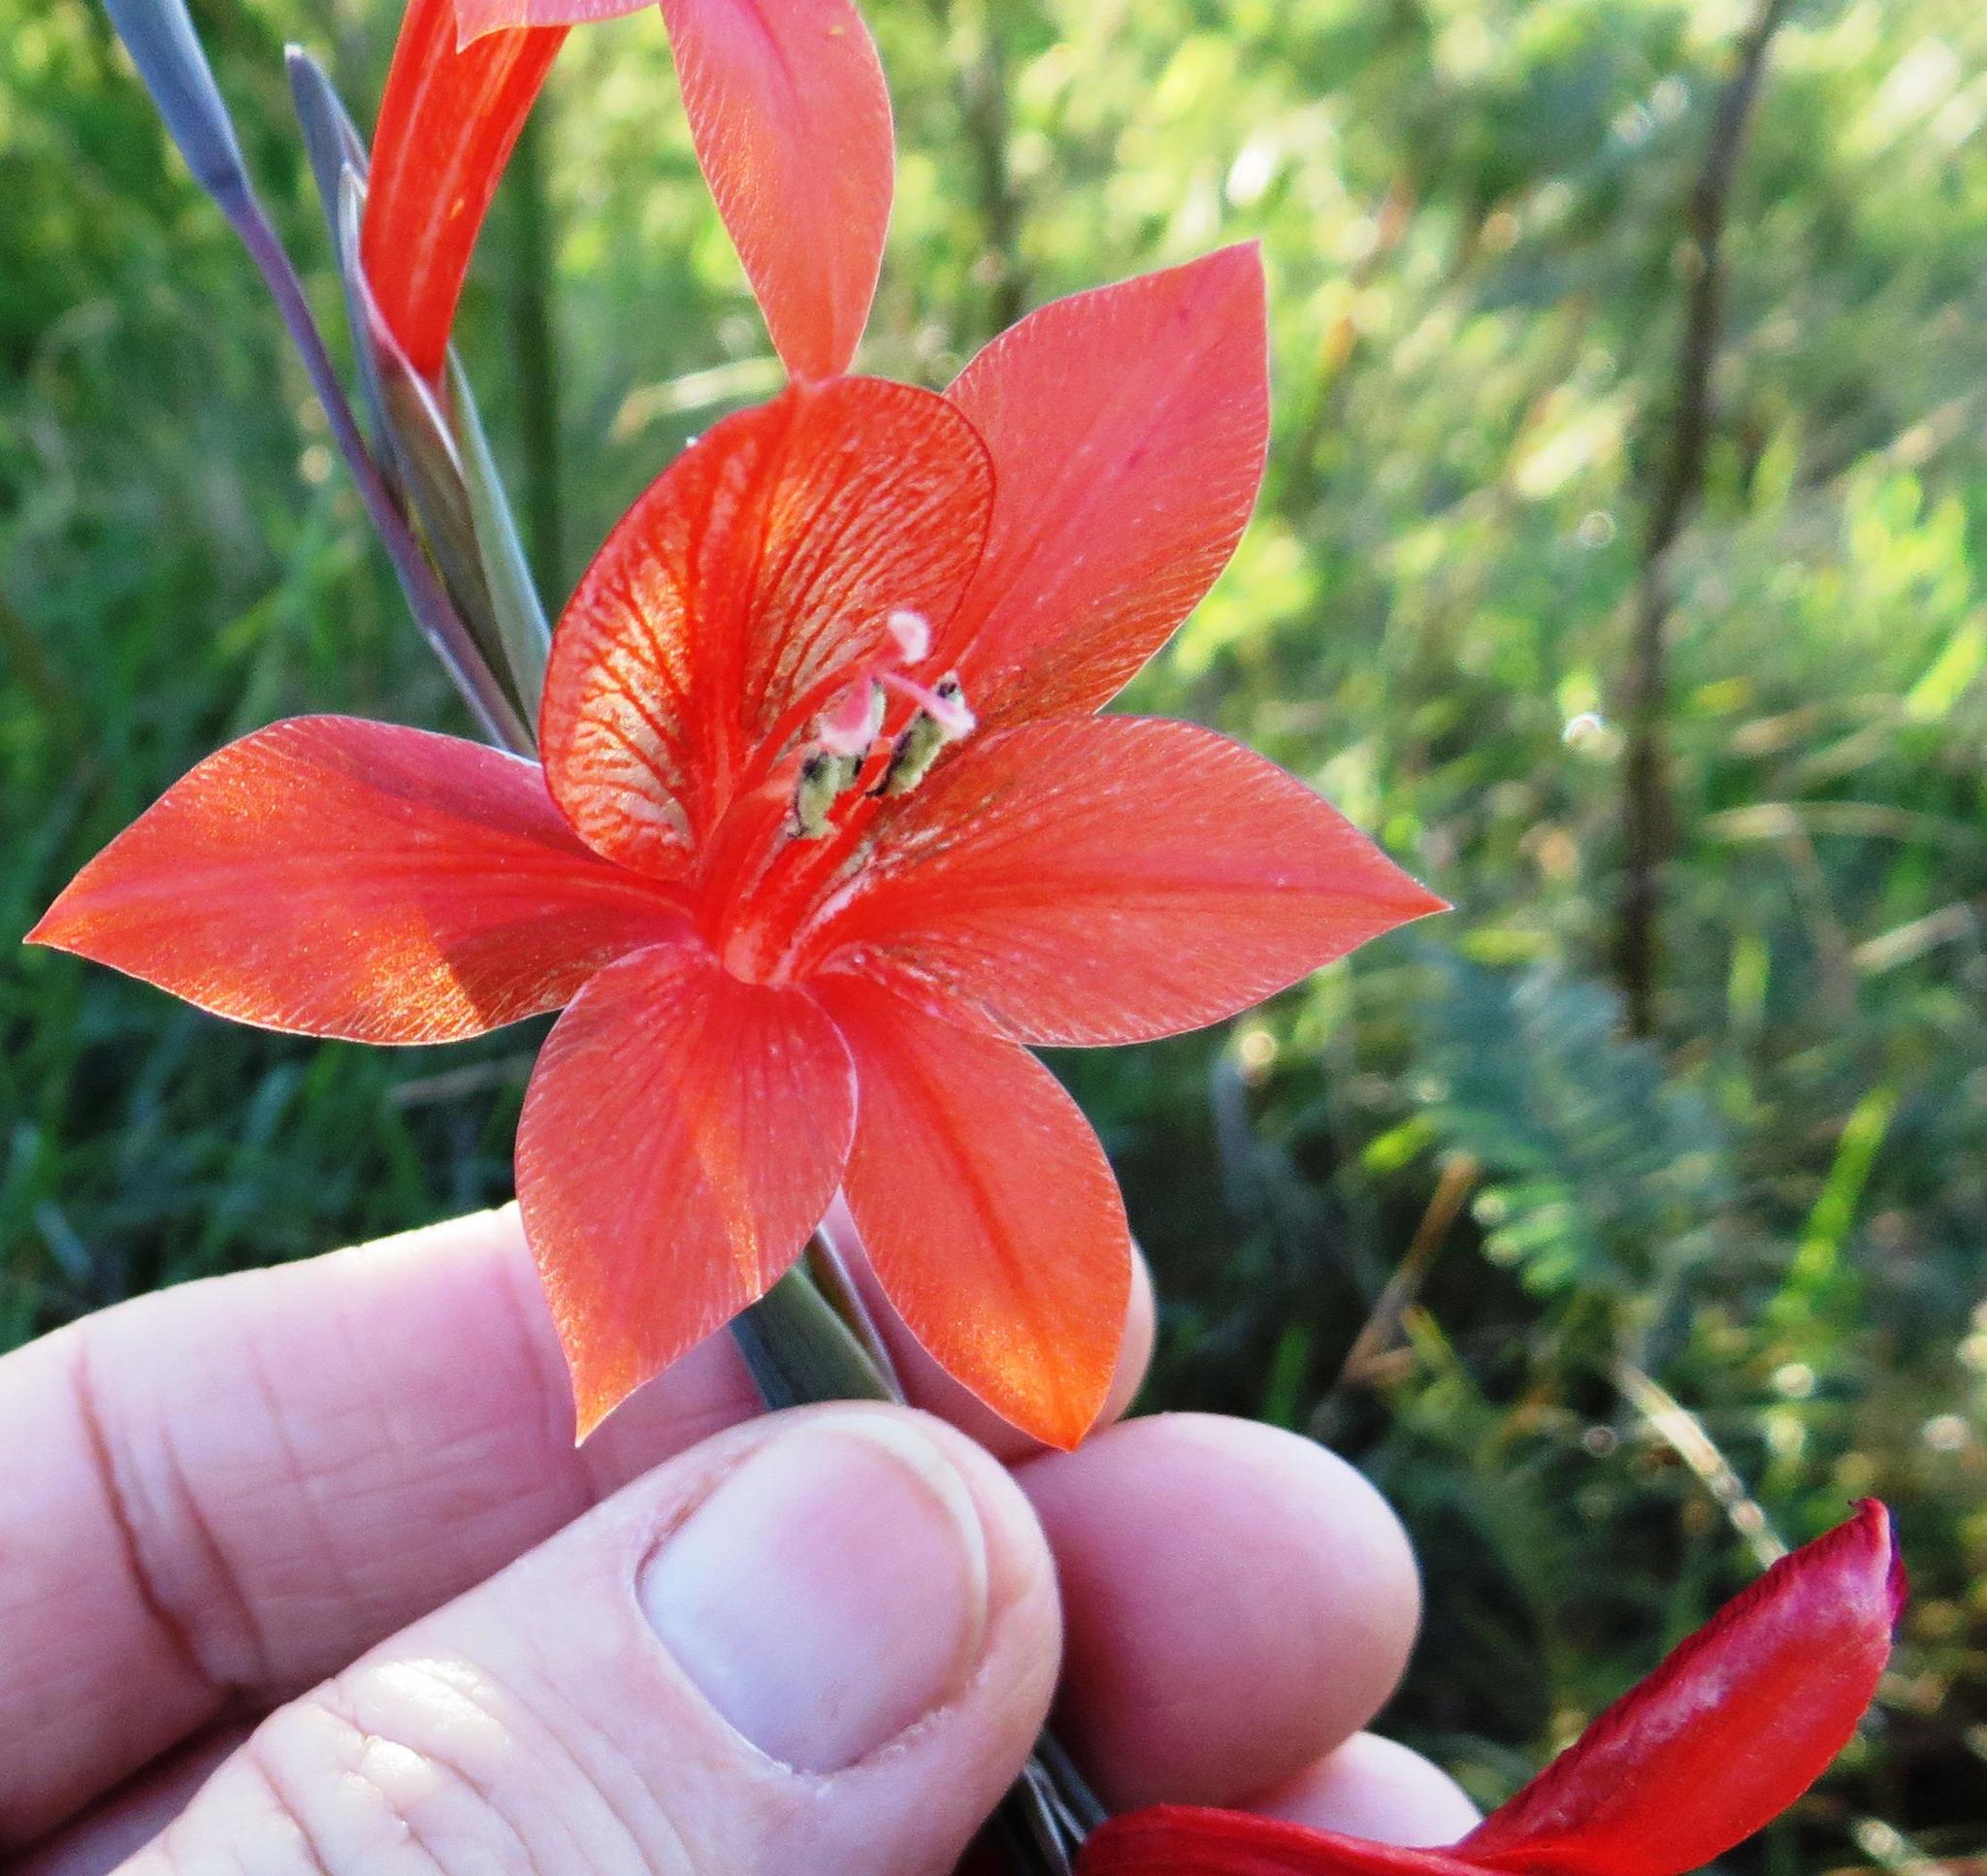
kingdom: Plantae
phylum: Tracheophyta
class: Liliopsida
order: Asparagales
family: Iridaceae
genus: Gladiolus
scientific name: Gladiolus watsonius
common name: Red afrikaner
